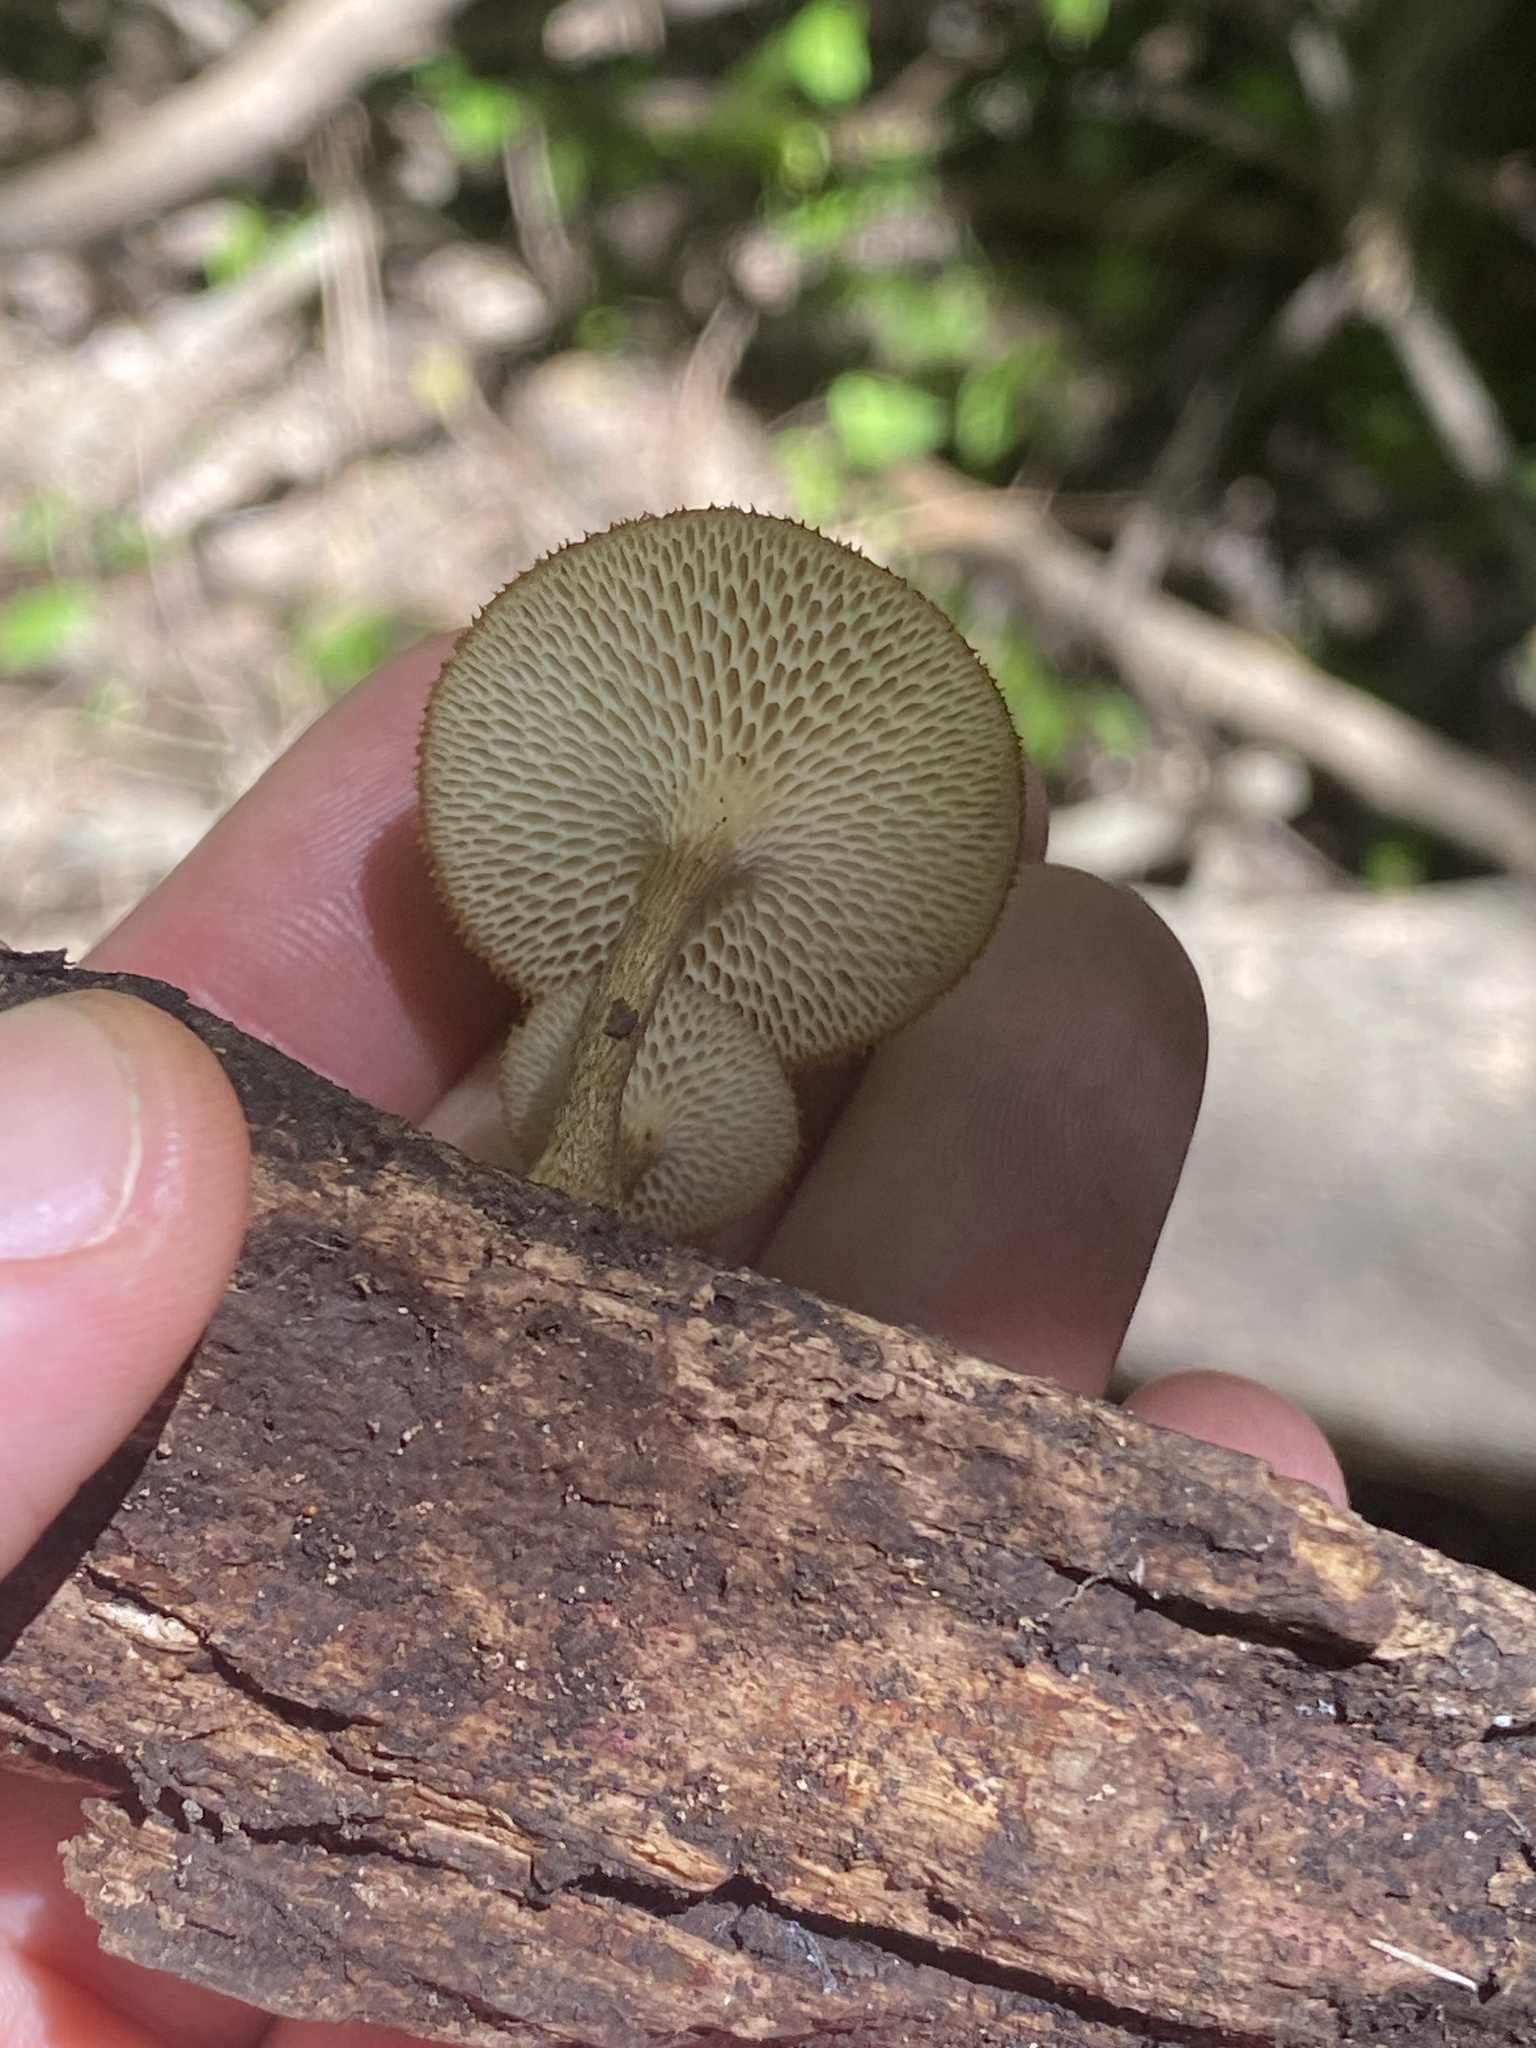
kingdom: Fungi
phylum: Basidiomycota
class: Agaricomycetes
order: Polyporales
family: Polyporaceae
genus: Lentinus
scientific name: Lentinus arcularius
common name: Spring polypore
